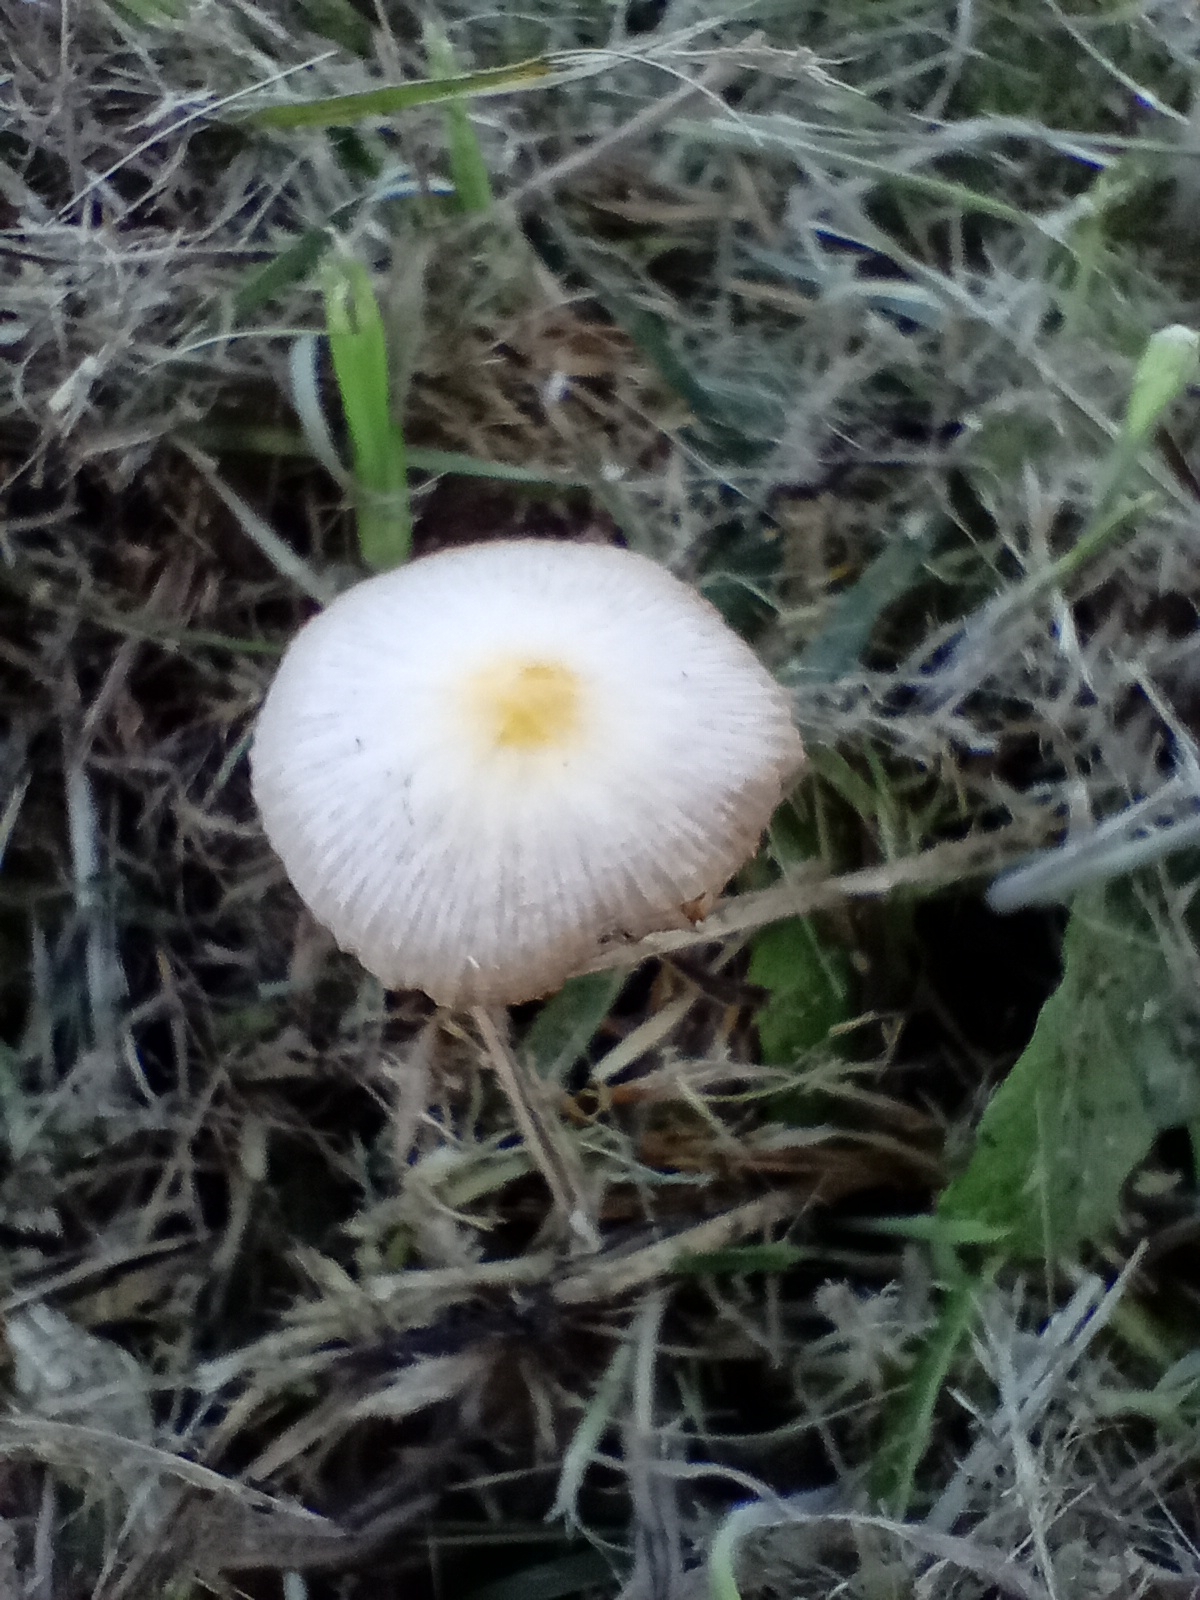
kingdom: Fungi
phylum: Basidiomycota
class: Agaricomycetes
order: Agaricales
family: Bolbitiaceae
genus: Bolbitius
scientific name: Bolbitius titubans
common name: Yellow fieldcap
